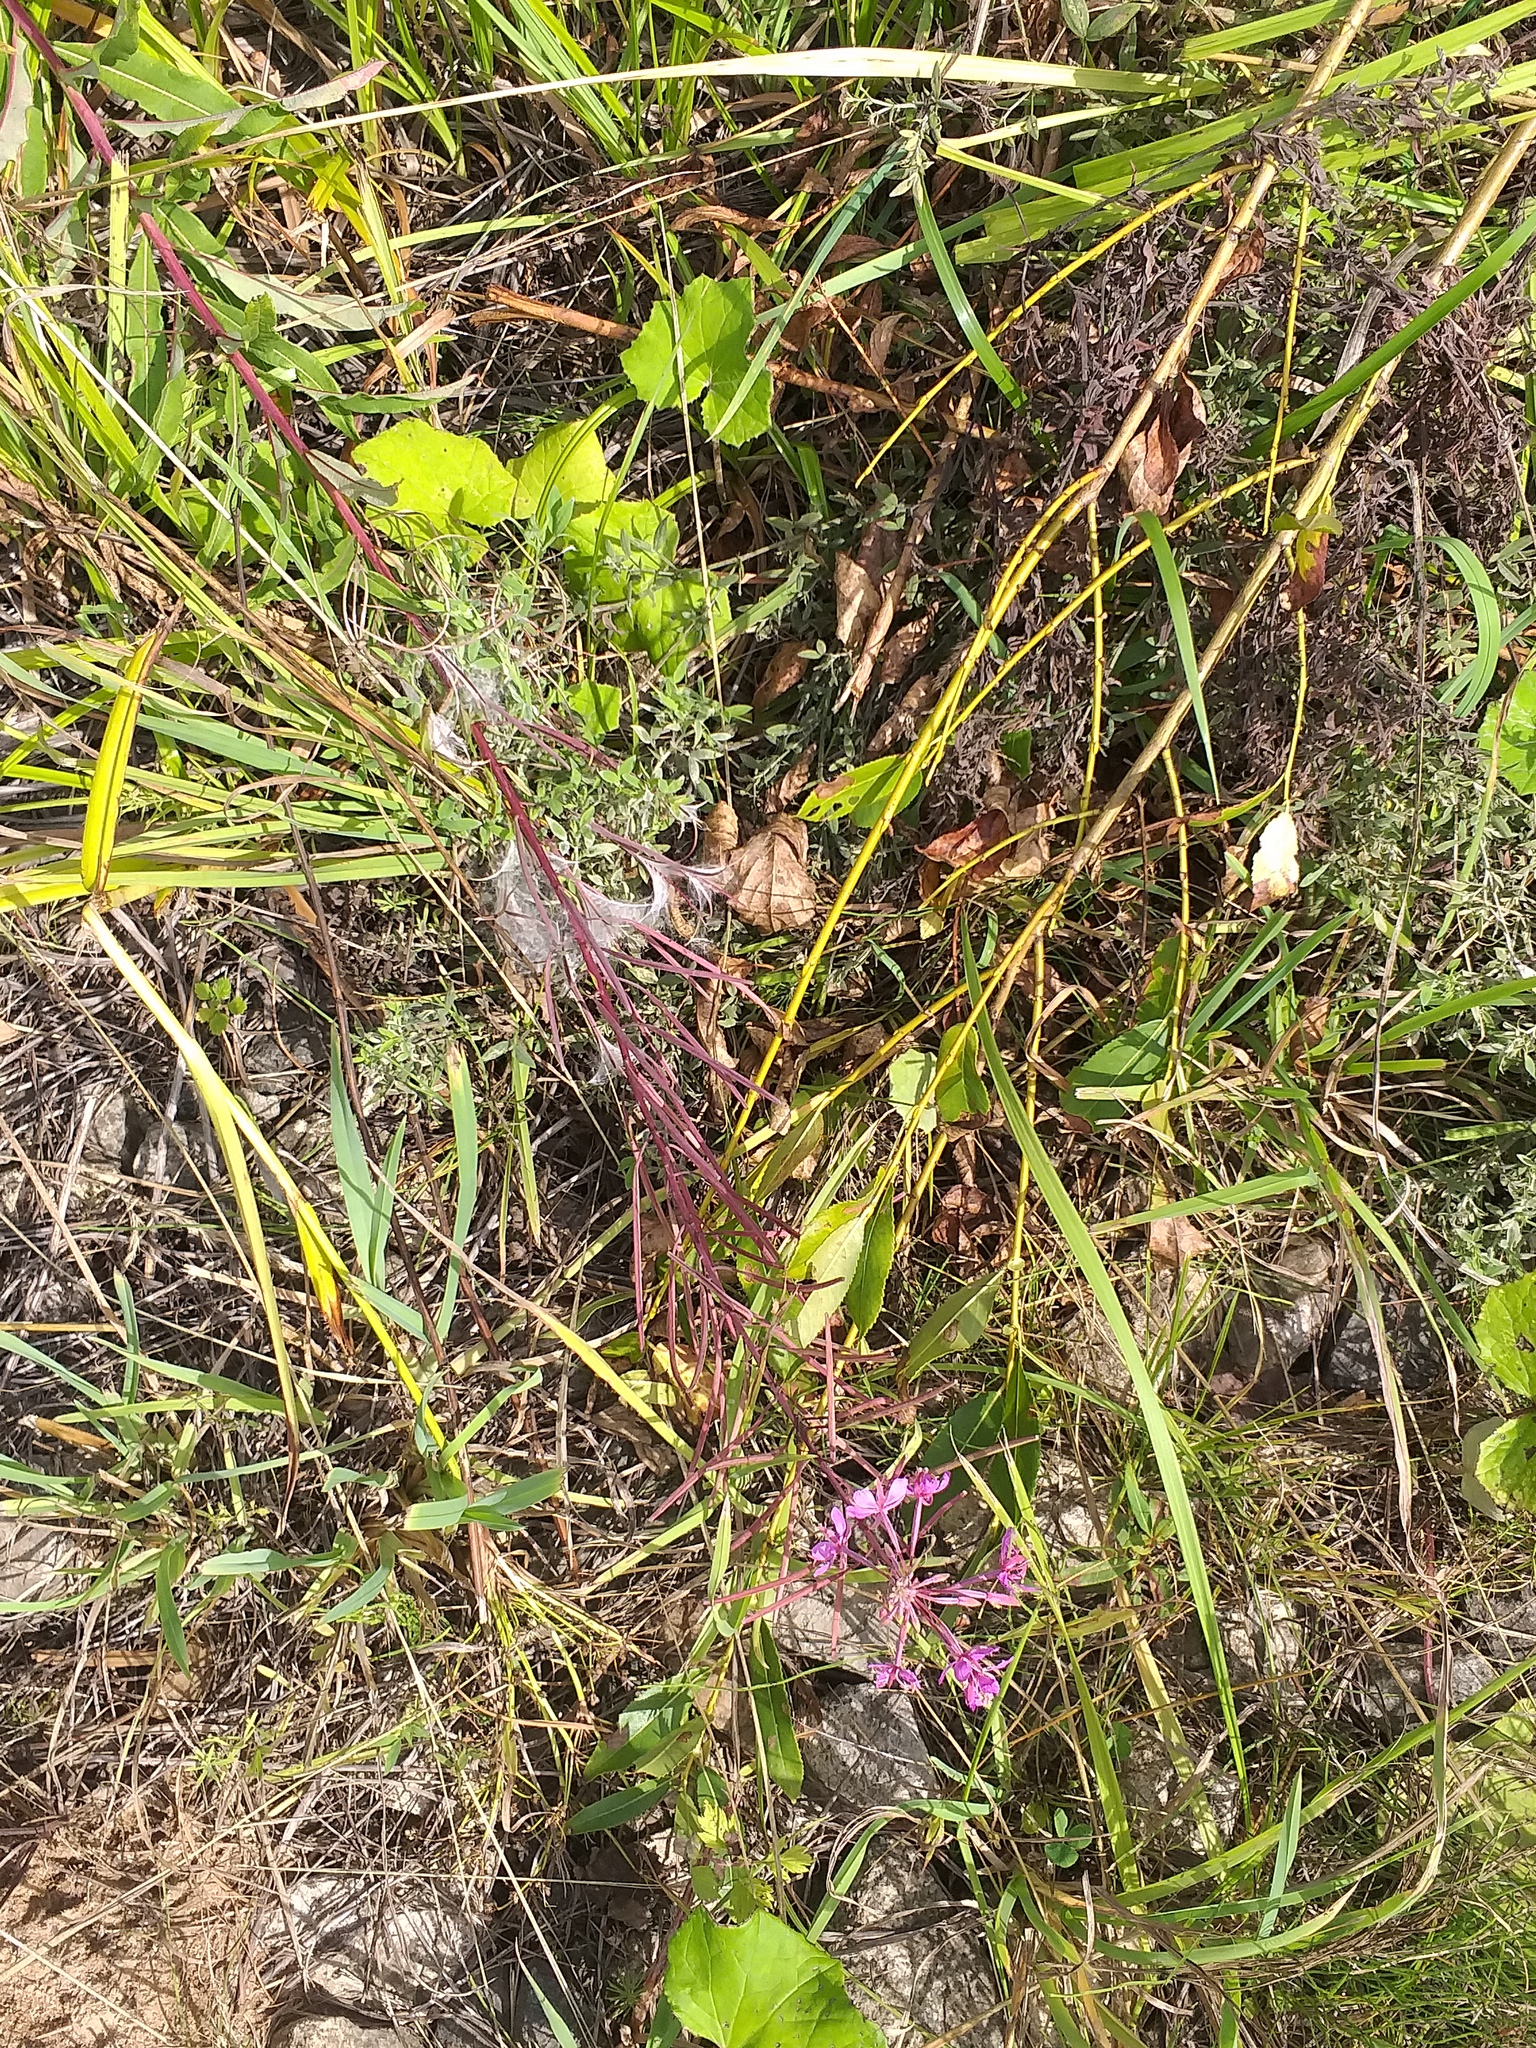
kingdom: Plantae
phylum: Tracheophyta
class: Magnoliopsida
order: Myrtales
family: Onagraceae
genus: Chamaenerion
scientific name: Chamaenerion angustifolium
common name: Fireweed
